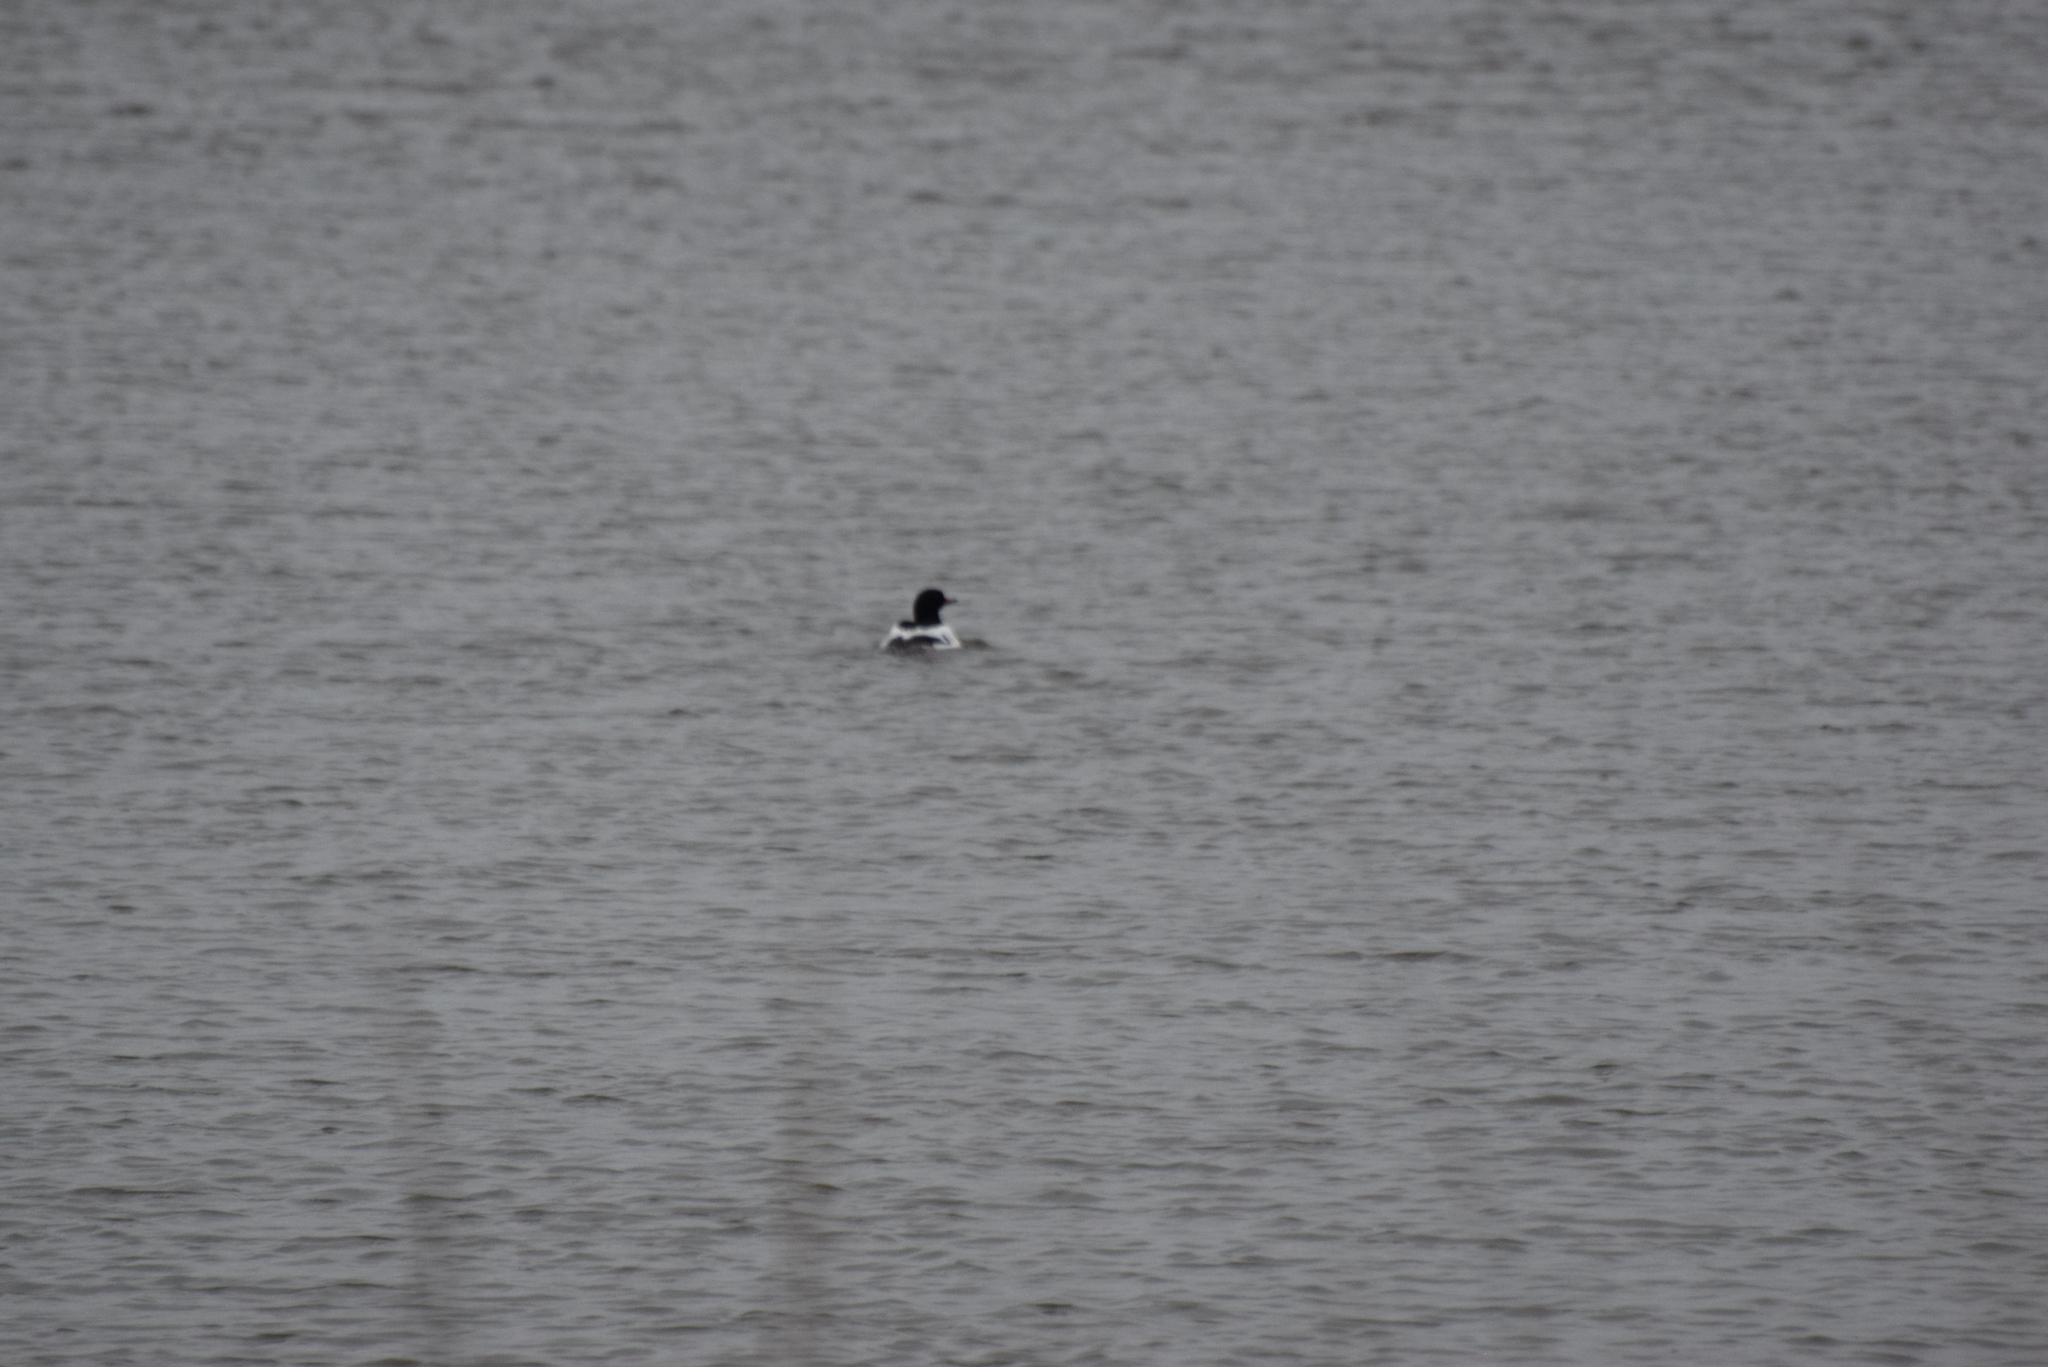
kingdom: Animalia
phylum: Chordata
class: Aves
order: Anseriformes
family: Anatidae
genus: Mergus
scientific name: Mergus merganser
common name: Common merganser
